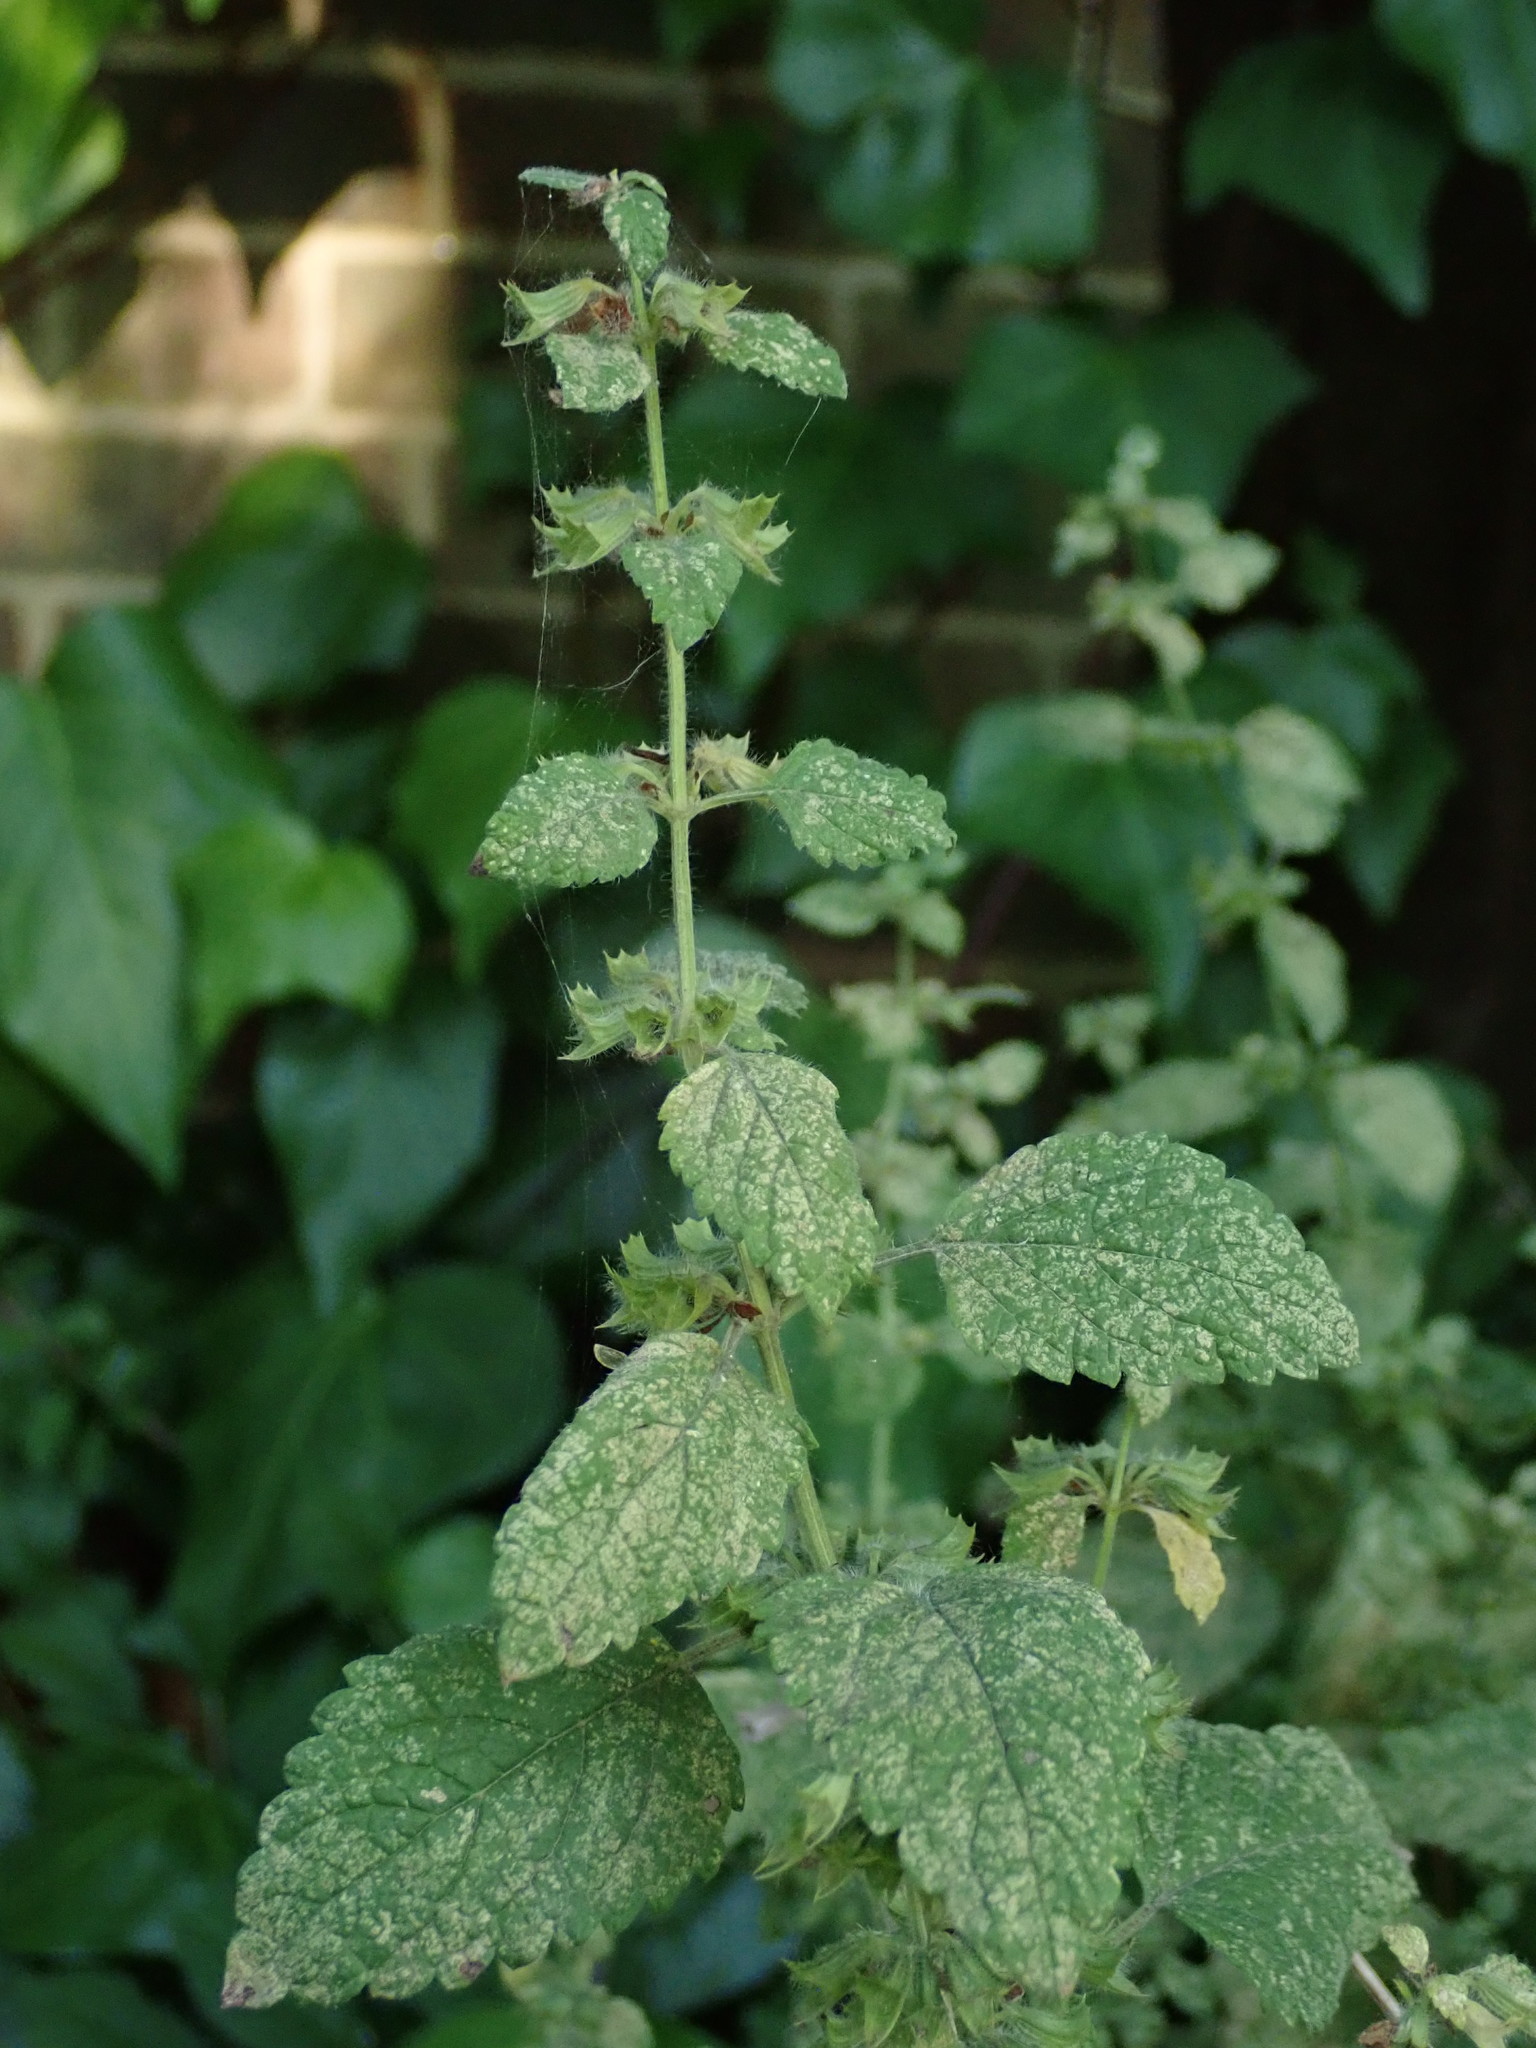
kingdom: Plantae
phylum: Tracheophyta
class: Magnoliopsida
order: Lamiales
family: Lamiaceae
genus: Melissa
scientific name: Melissa officinalis
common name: Balm
